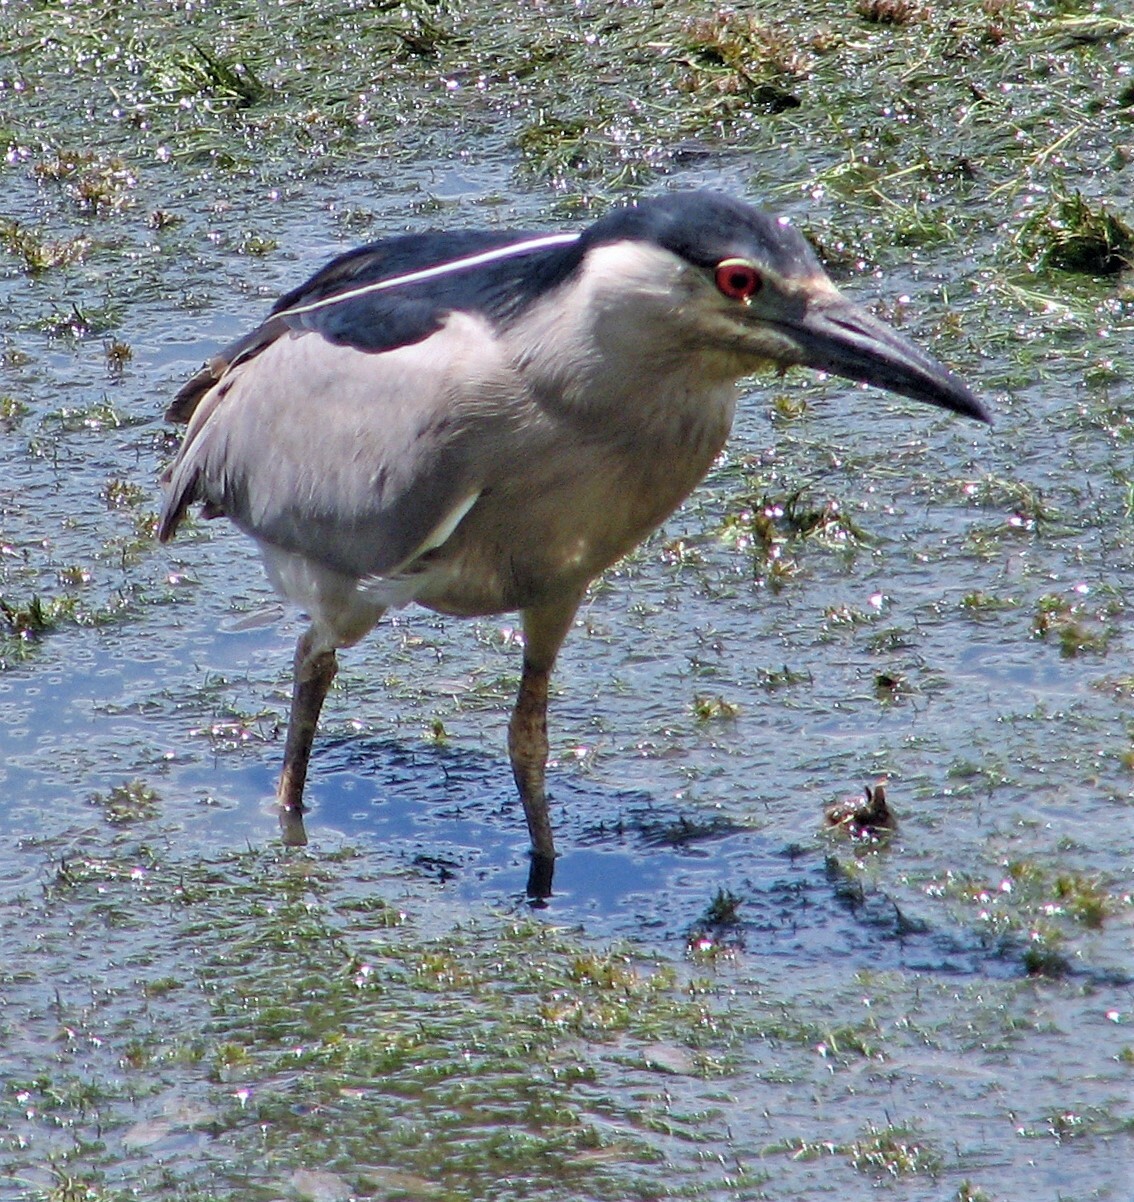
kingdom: Animalia
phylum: Chordata
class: Aves
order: Pelecaniformes
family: Ardeidae
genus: Nycticorax
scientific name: Nycticorax nycticorax
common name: Black-crowned night heron
